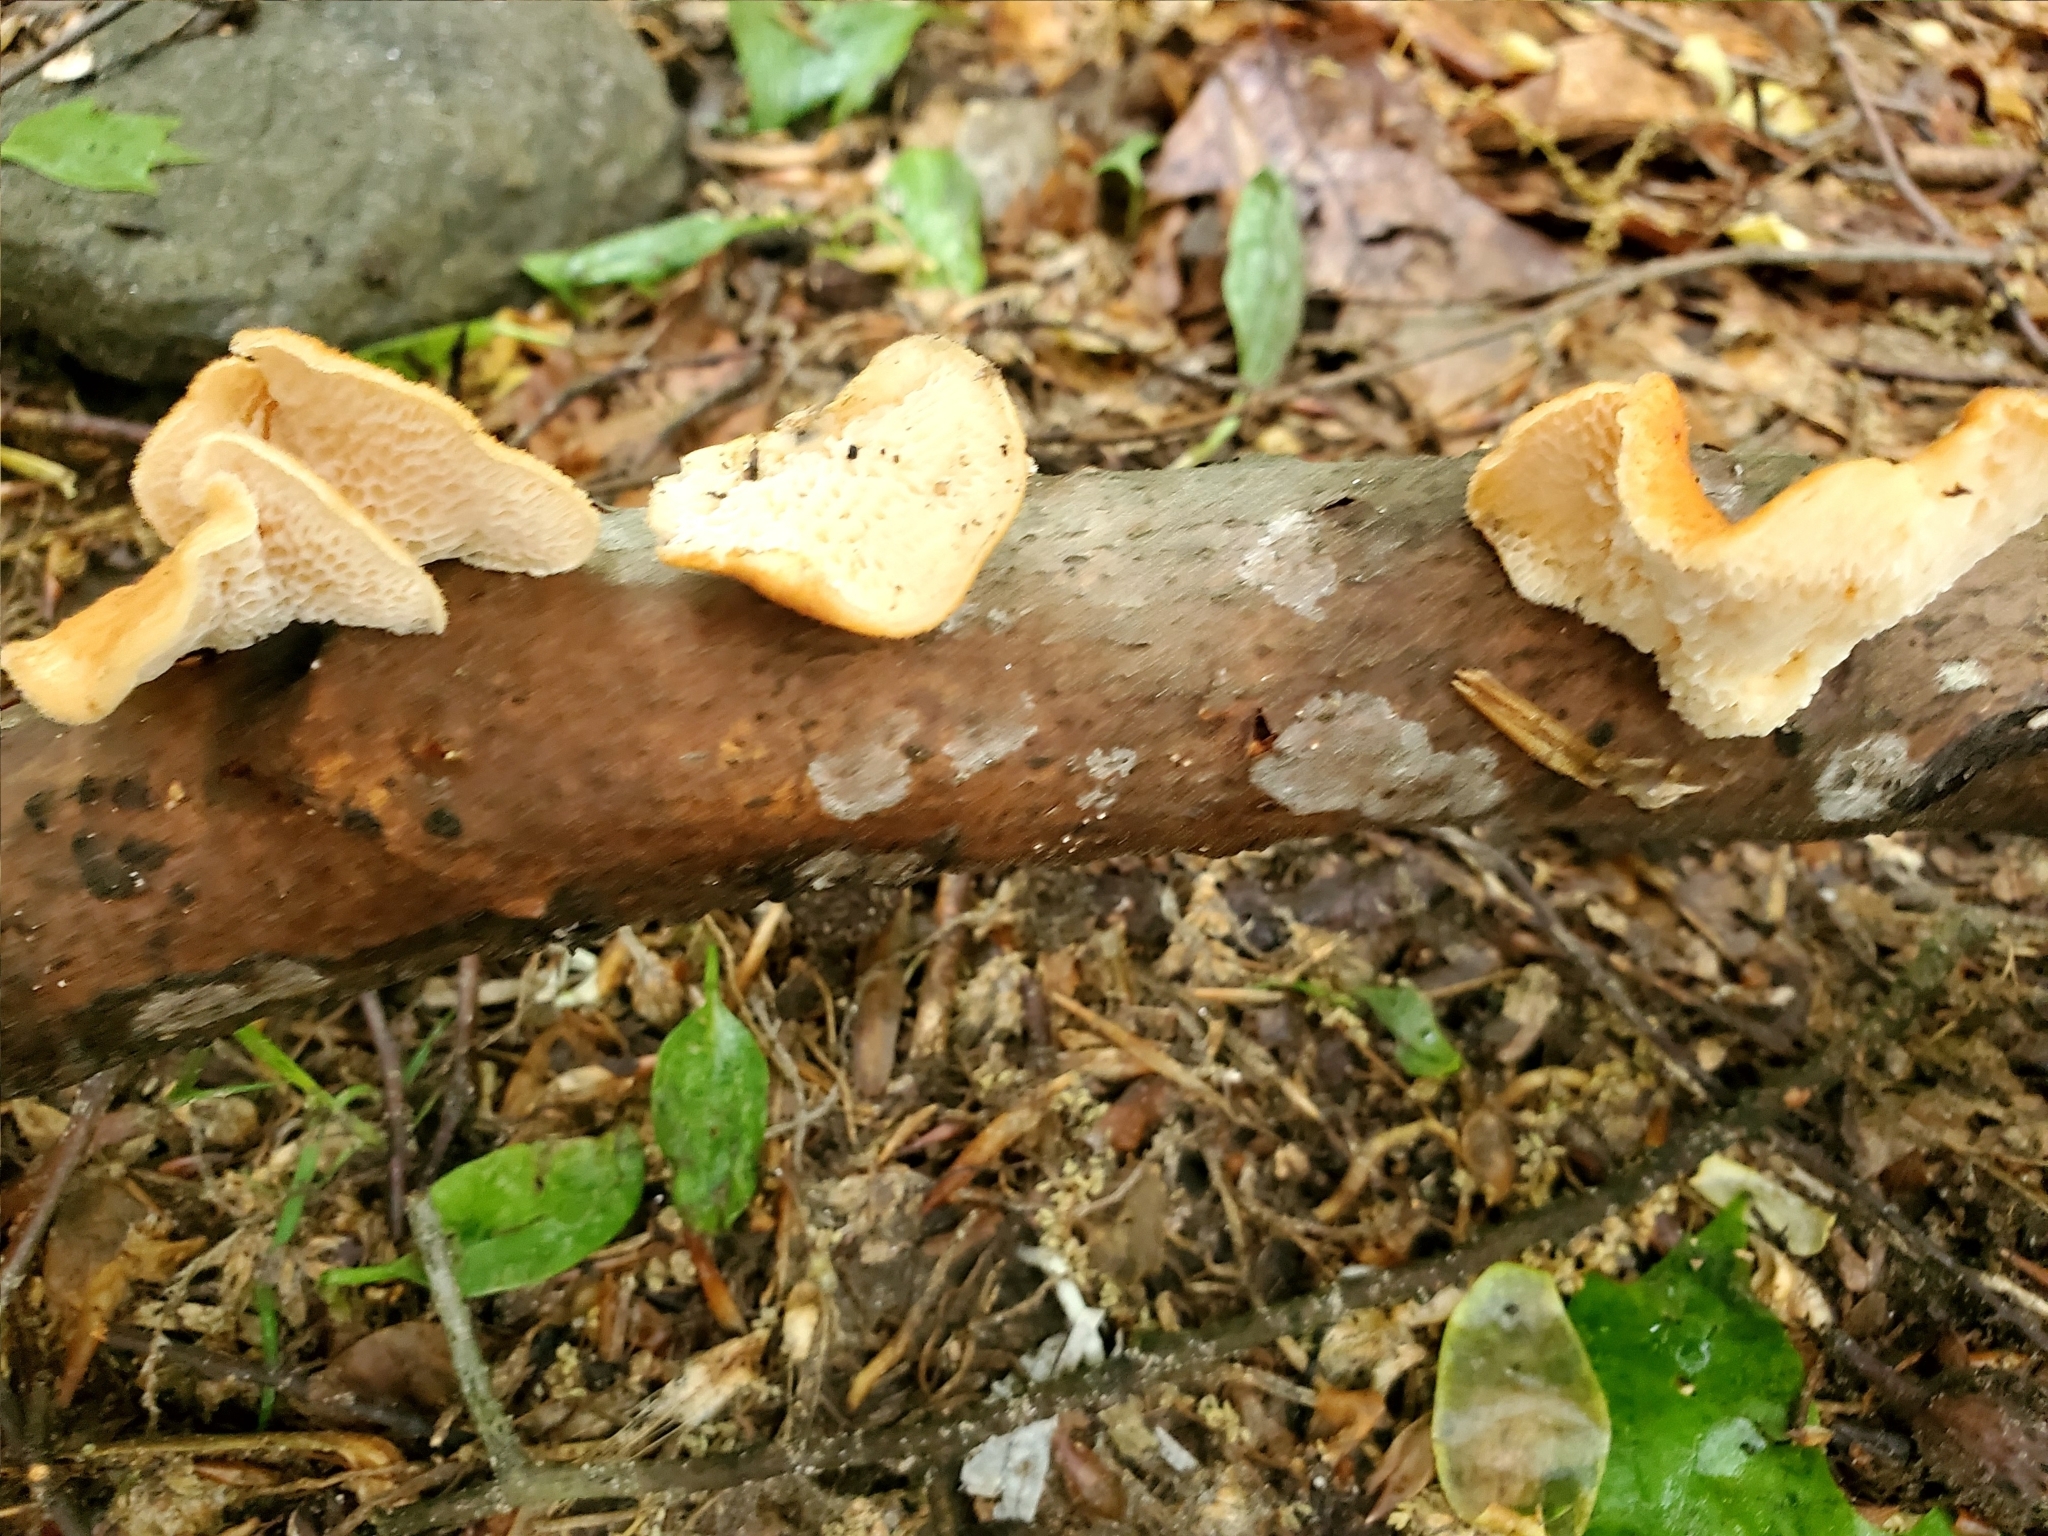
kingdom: Fungi
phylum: Basidiomycota
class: Agaricomycetes
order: Polyporales
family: Polyporaceae
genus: Neofavolus
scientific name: Neofavolus alveolaris
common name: Hexagonal-pored polypore
